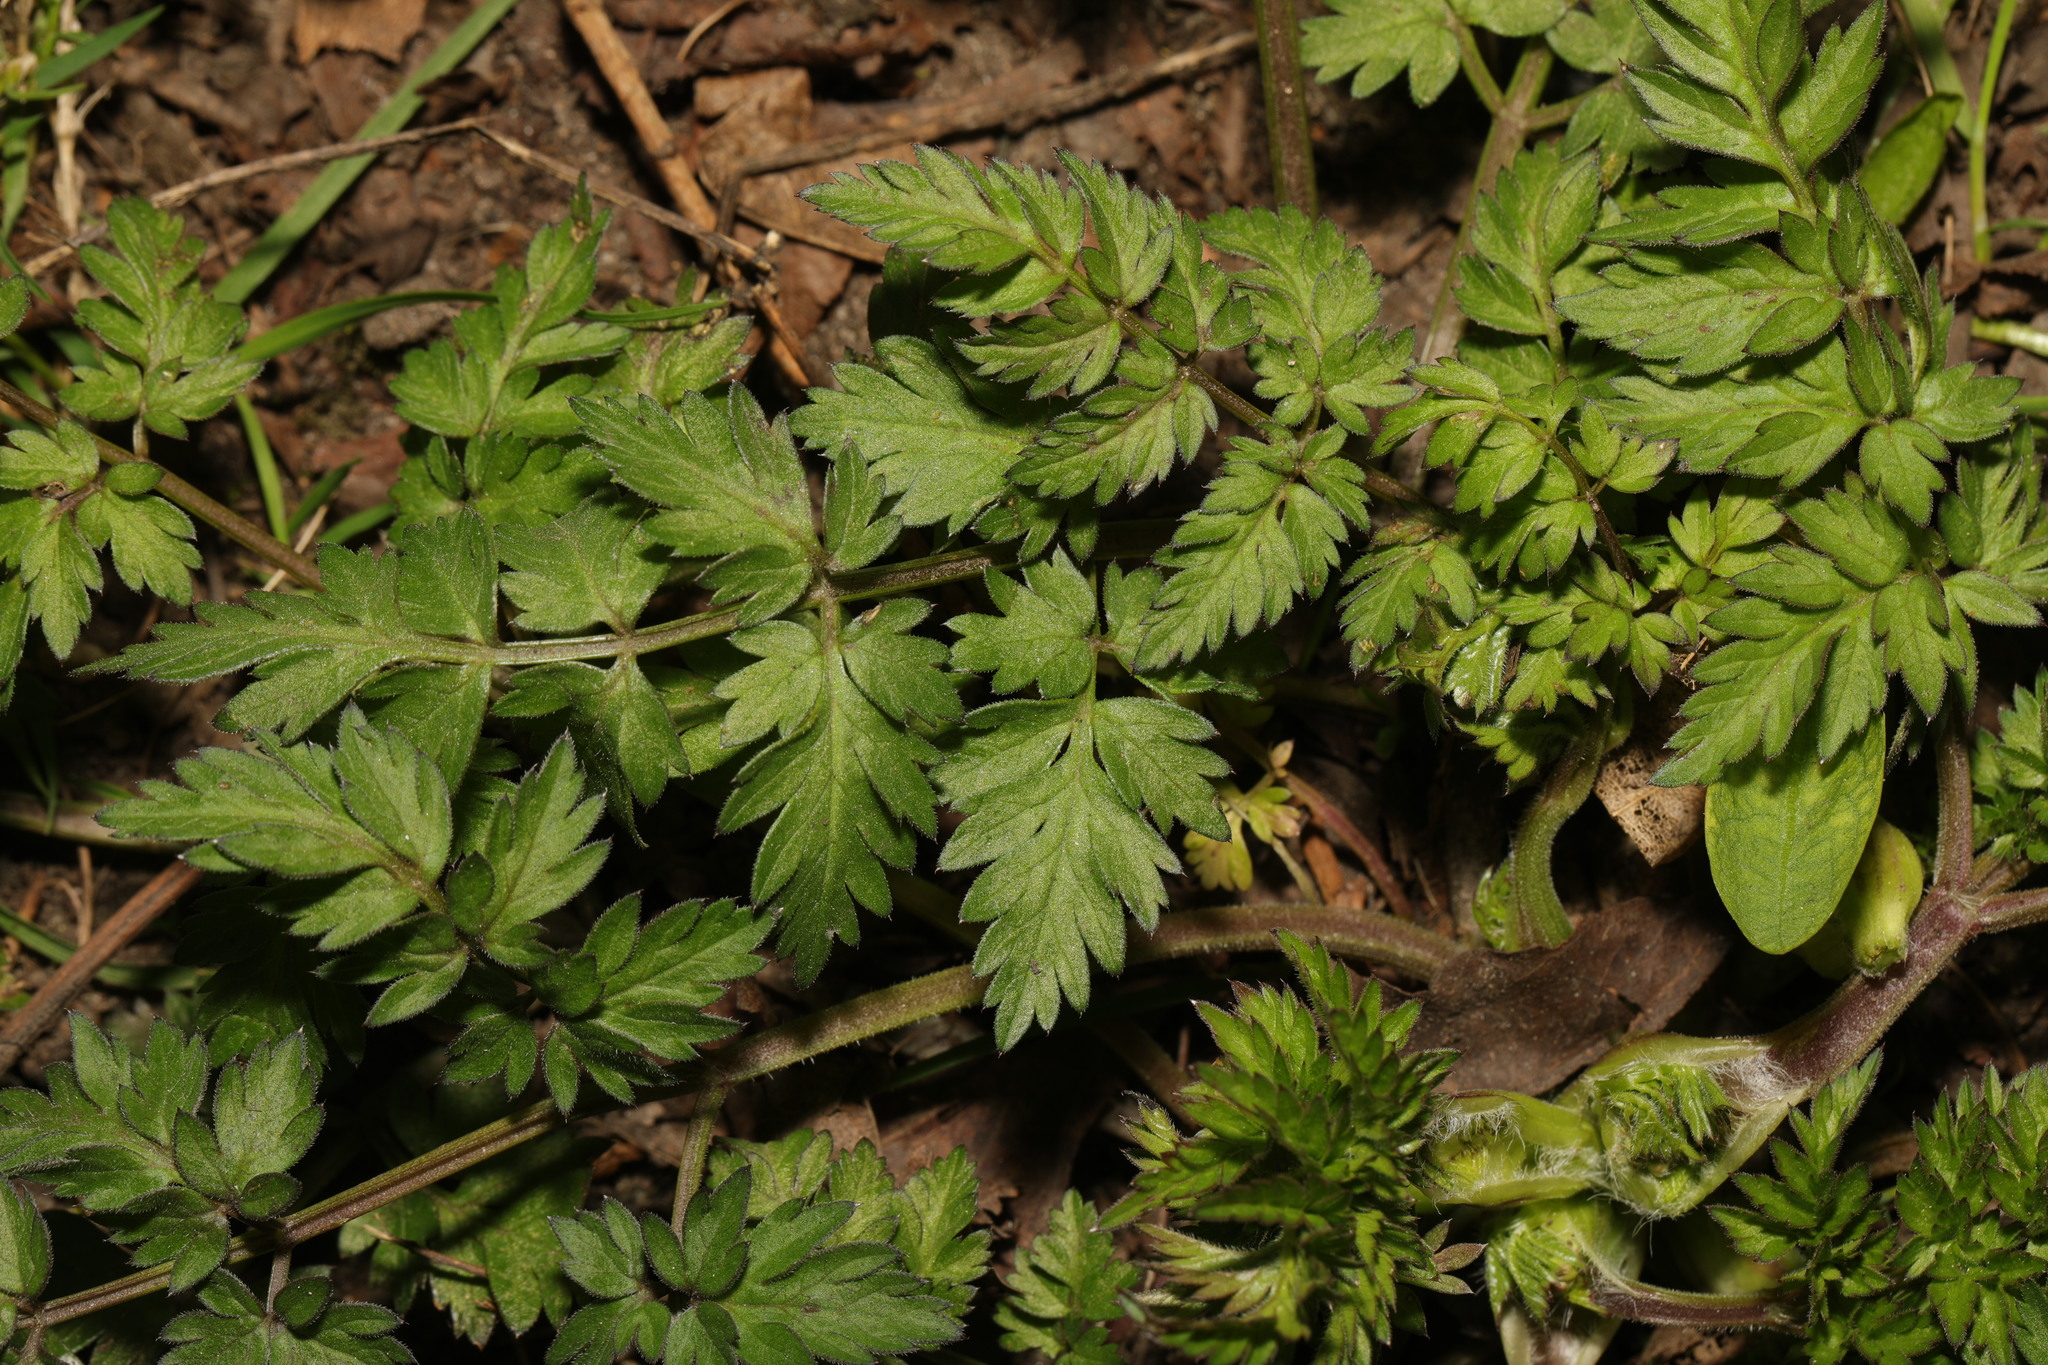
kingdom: Plantae
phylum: Tracheophyta
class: Magnoliopsida
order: Apiales
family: Apiaceae
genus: Anthriscus
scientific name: Anthriscus sylvestris
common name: Cow parsley
